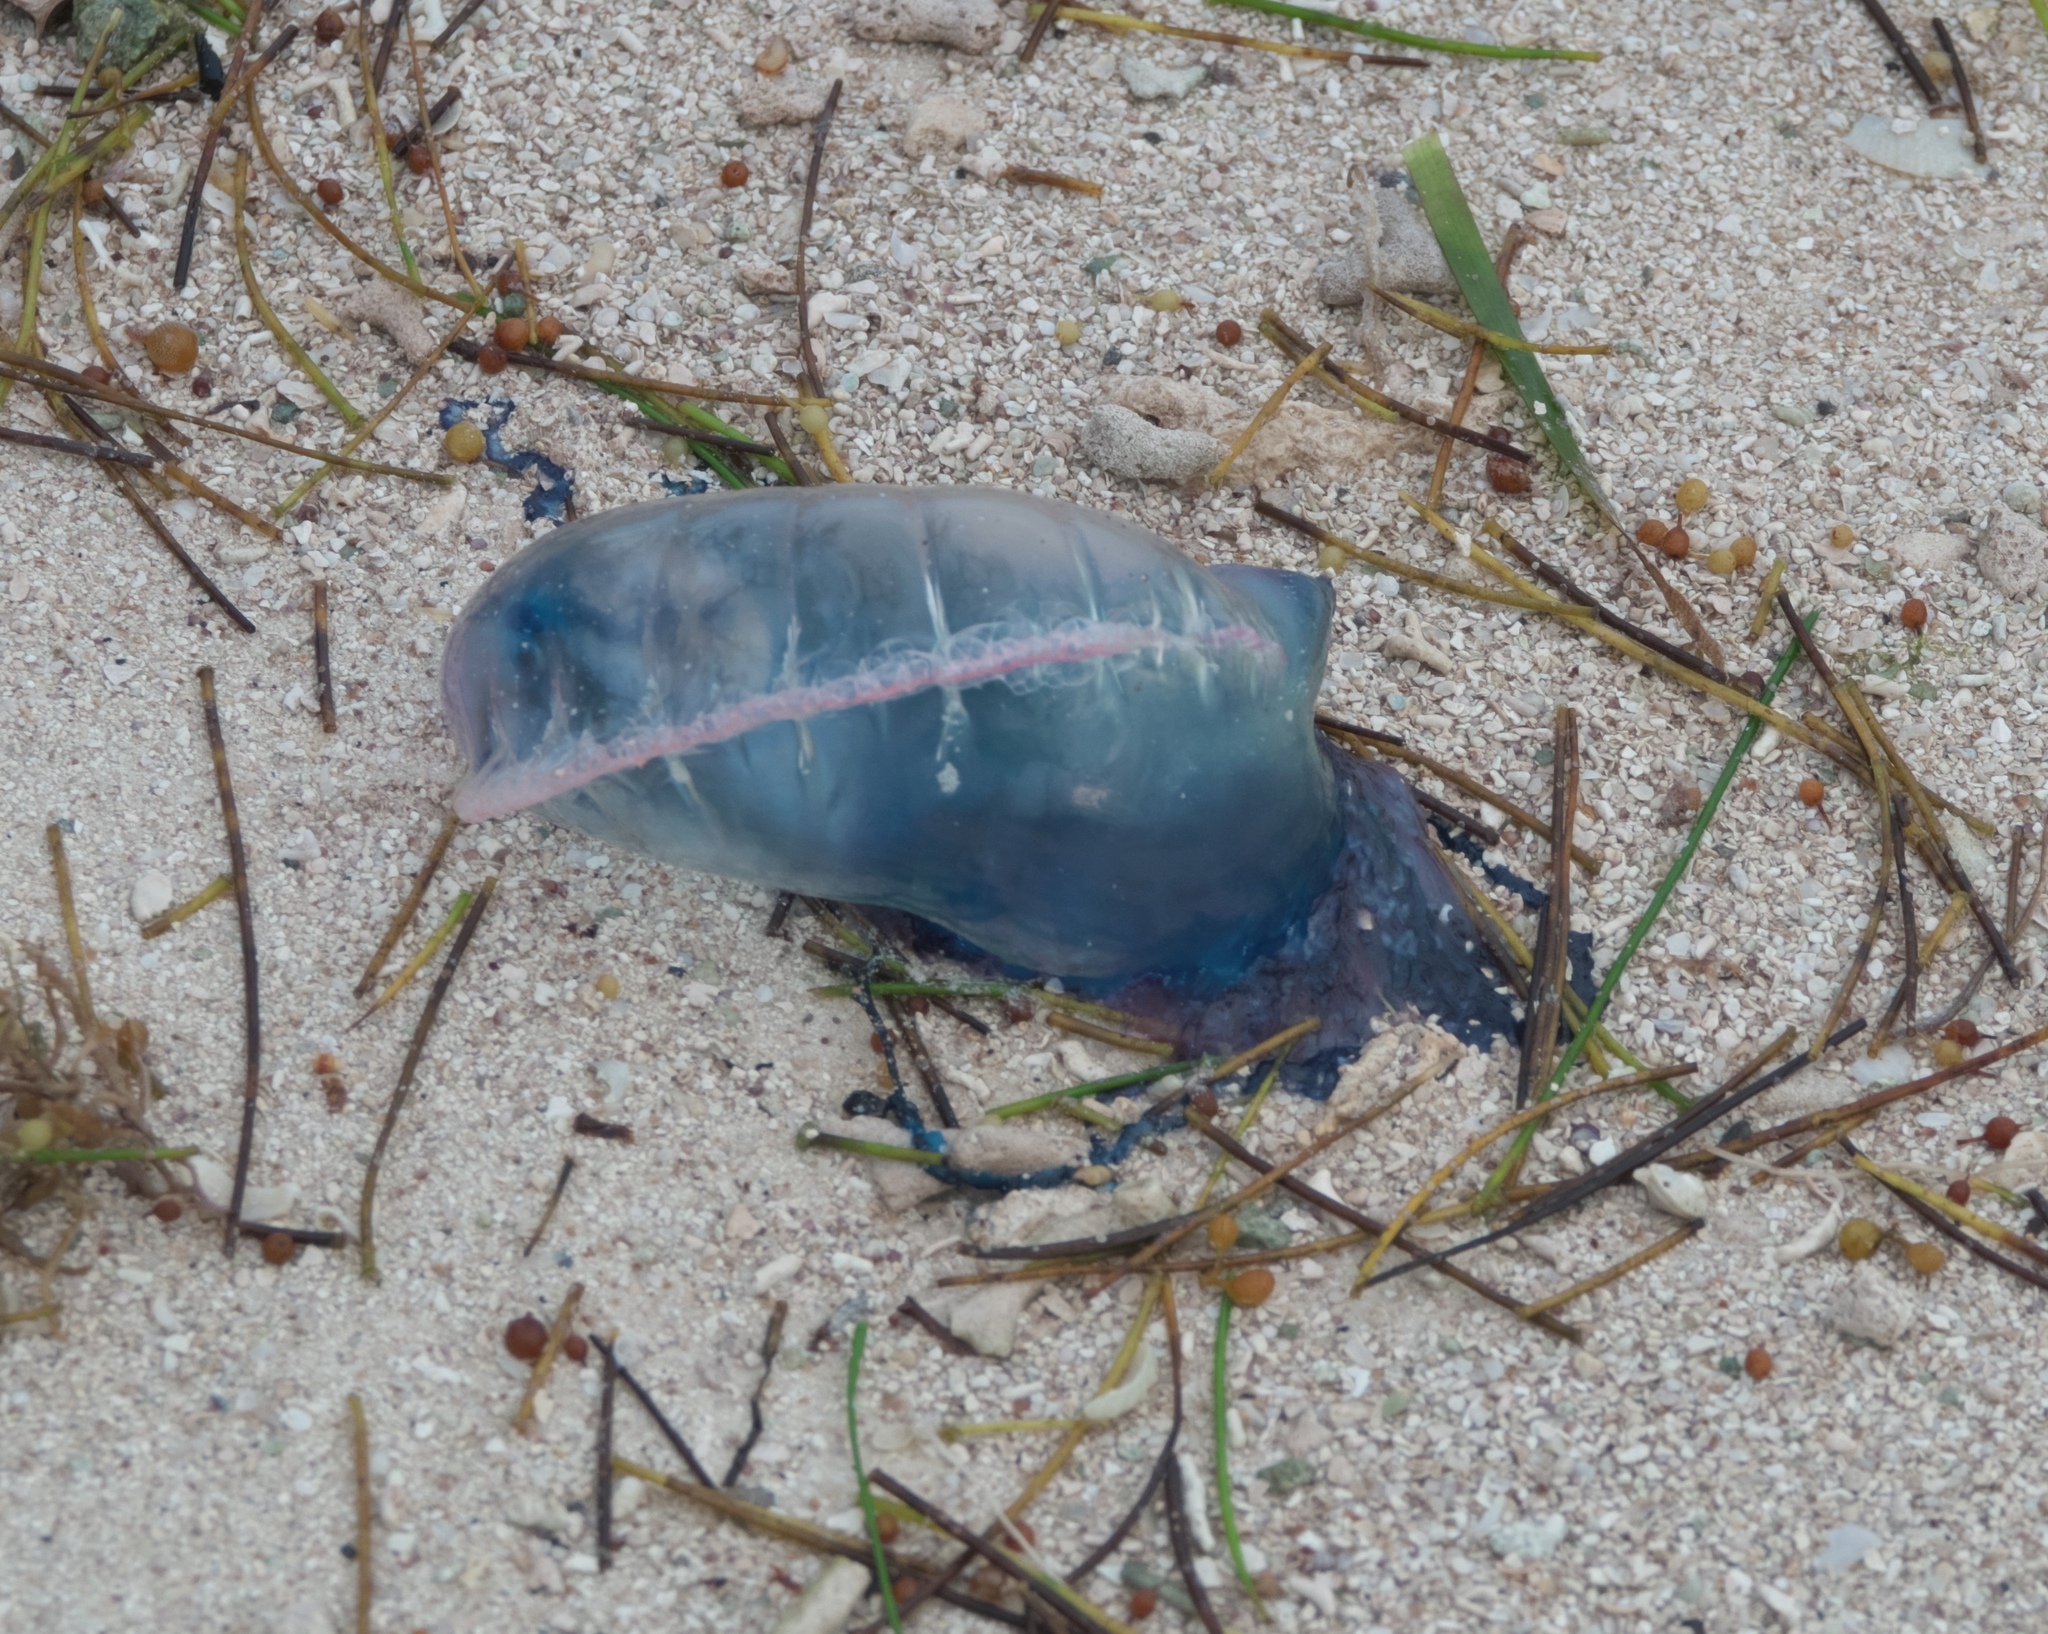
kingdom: Animalia
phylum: Cnidaria
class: Hydrozoa
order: Siphonophorae
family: Physaliidae
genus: Physalia
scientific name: Physalia physalis
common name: Portuguese man-of-war
